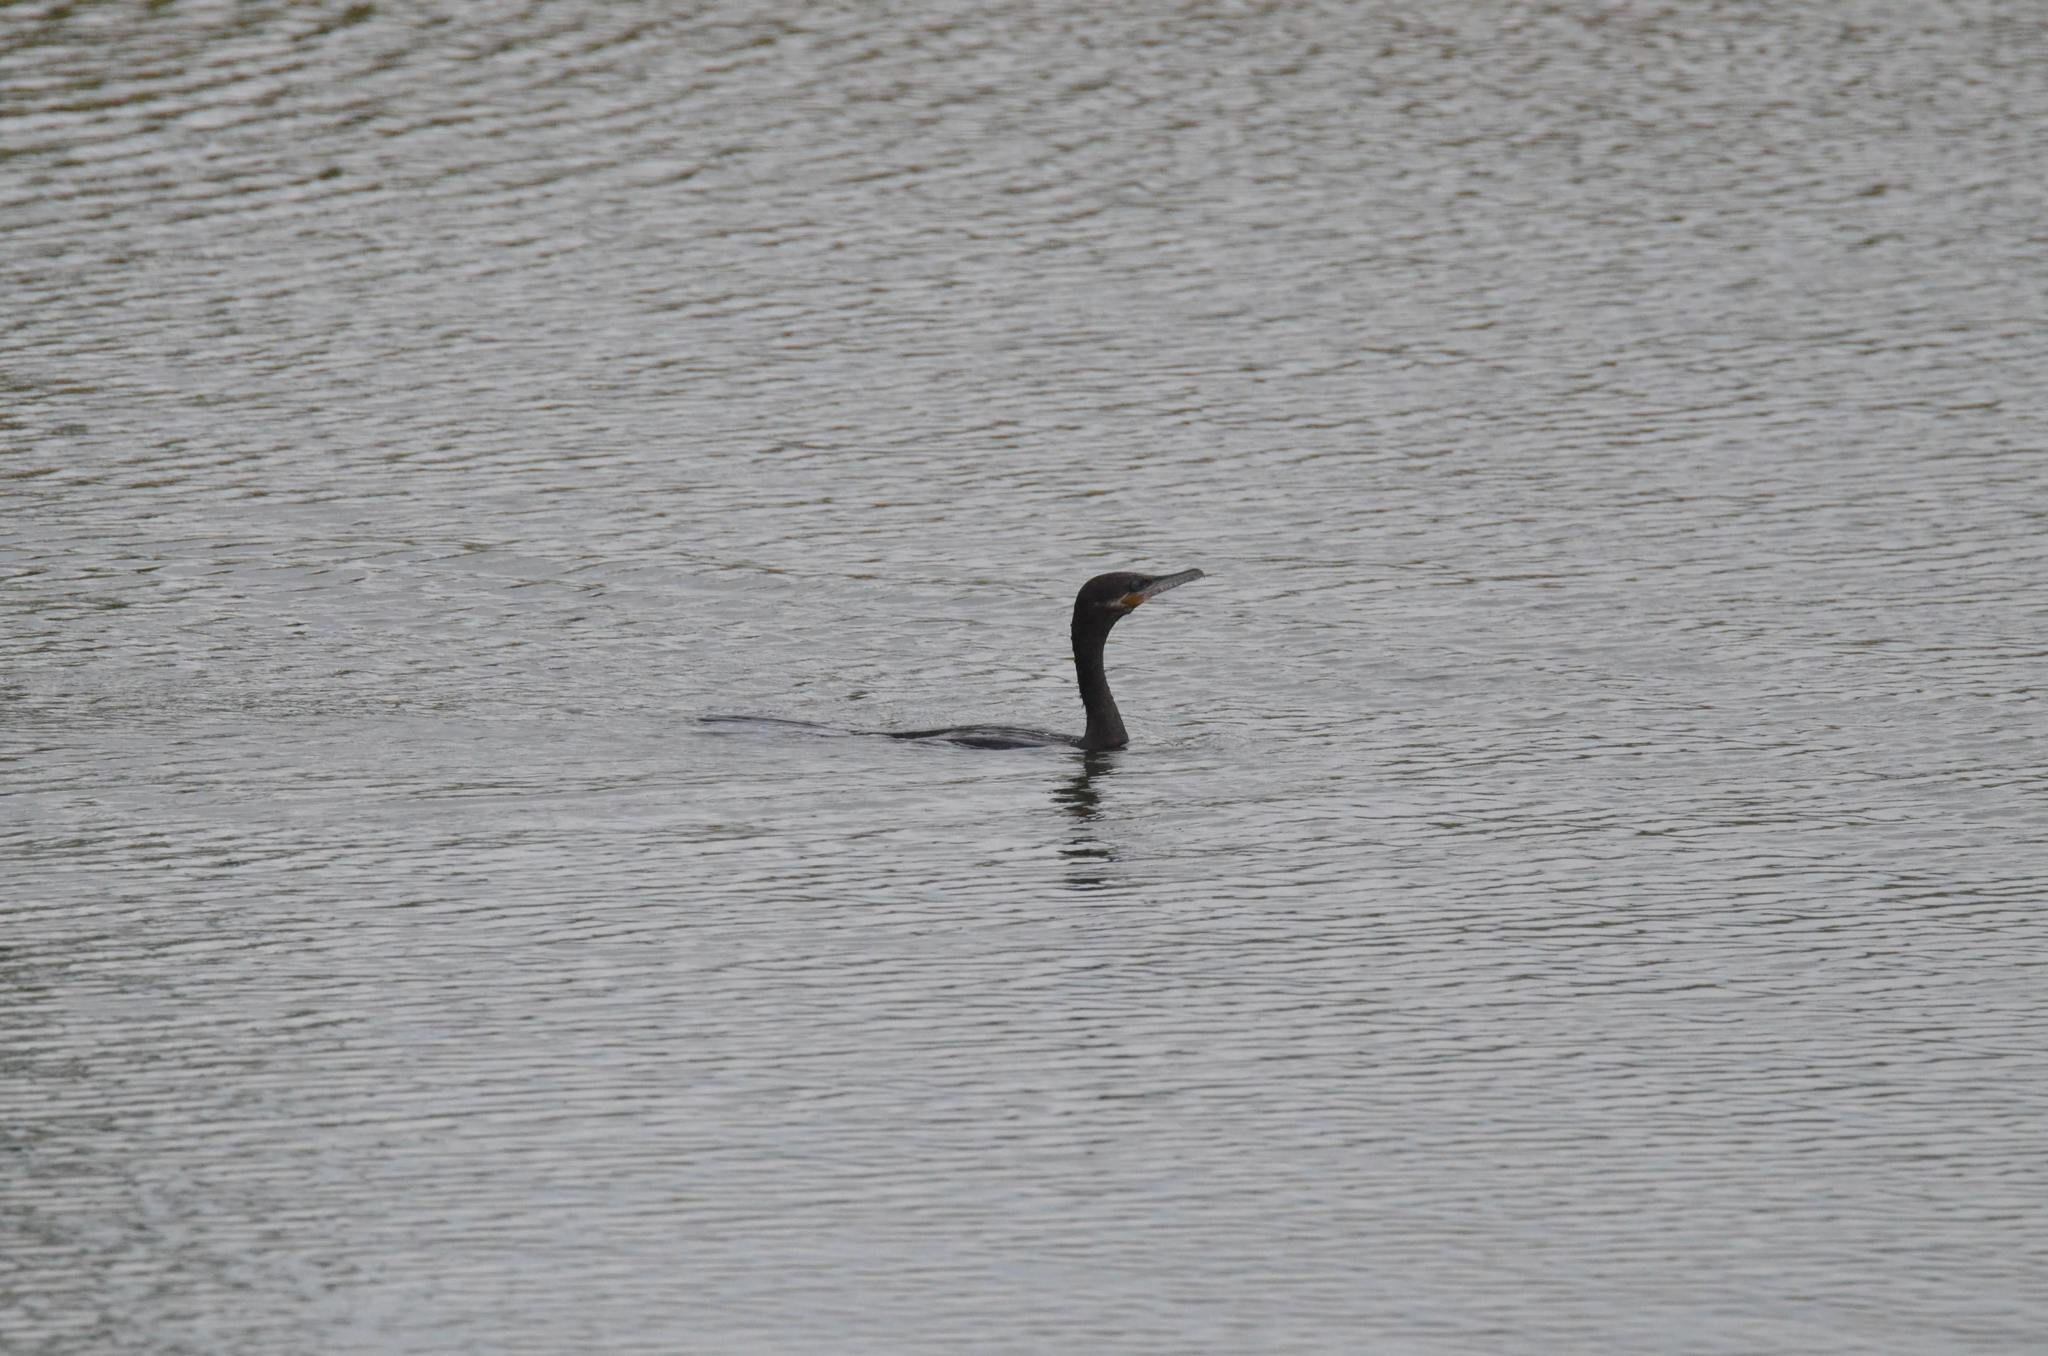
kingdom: Animalia
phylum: Chordata
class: Aves
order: Suliformes
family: Phalacrocoracidae
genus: Phalacrocorax
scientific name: Phalacrocorax brasilianus
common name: Neotropic cormorant
